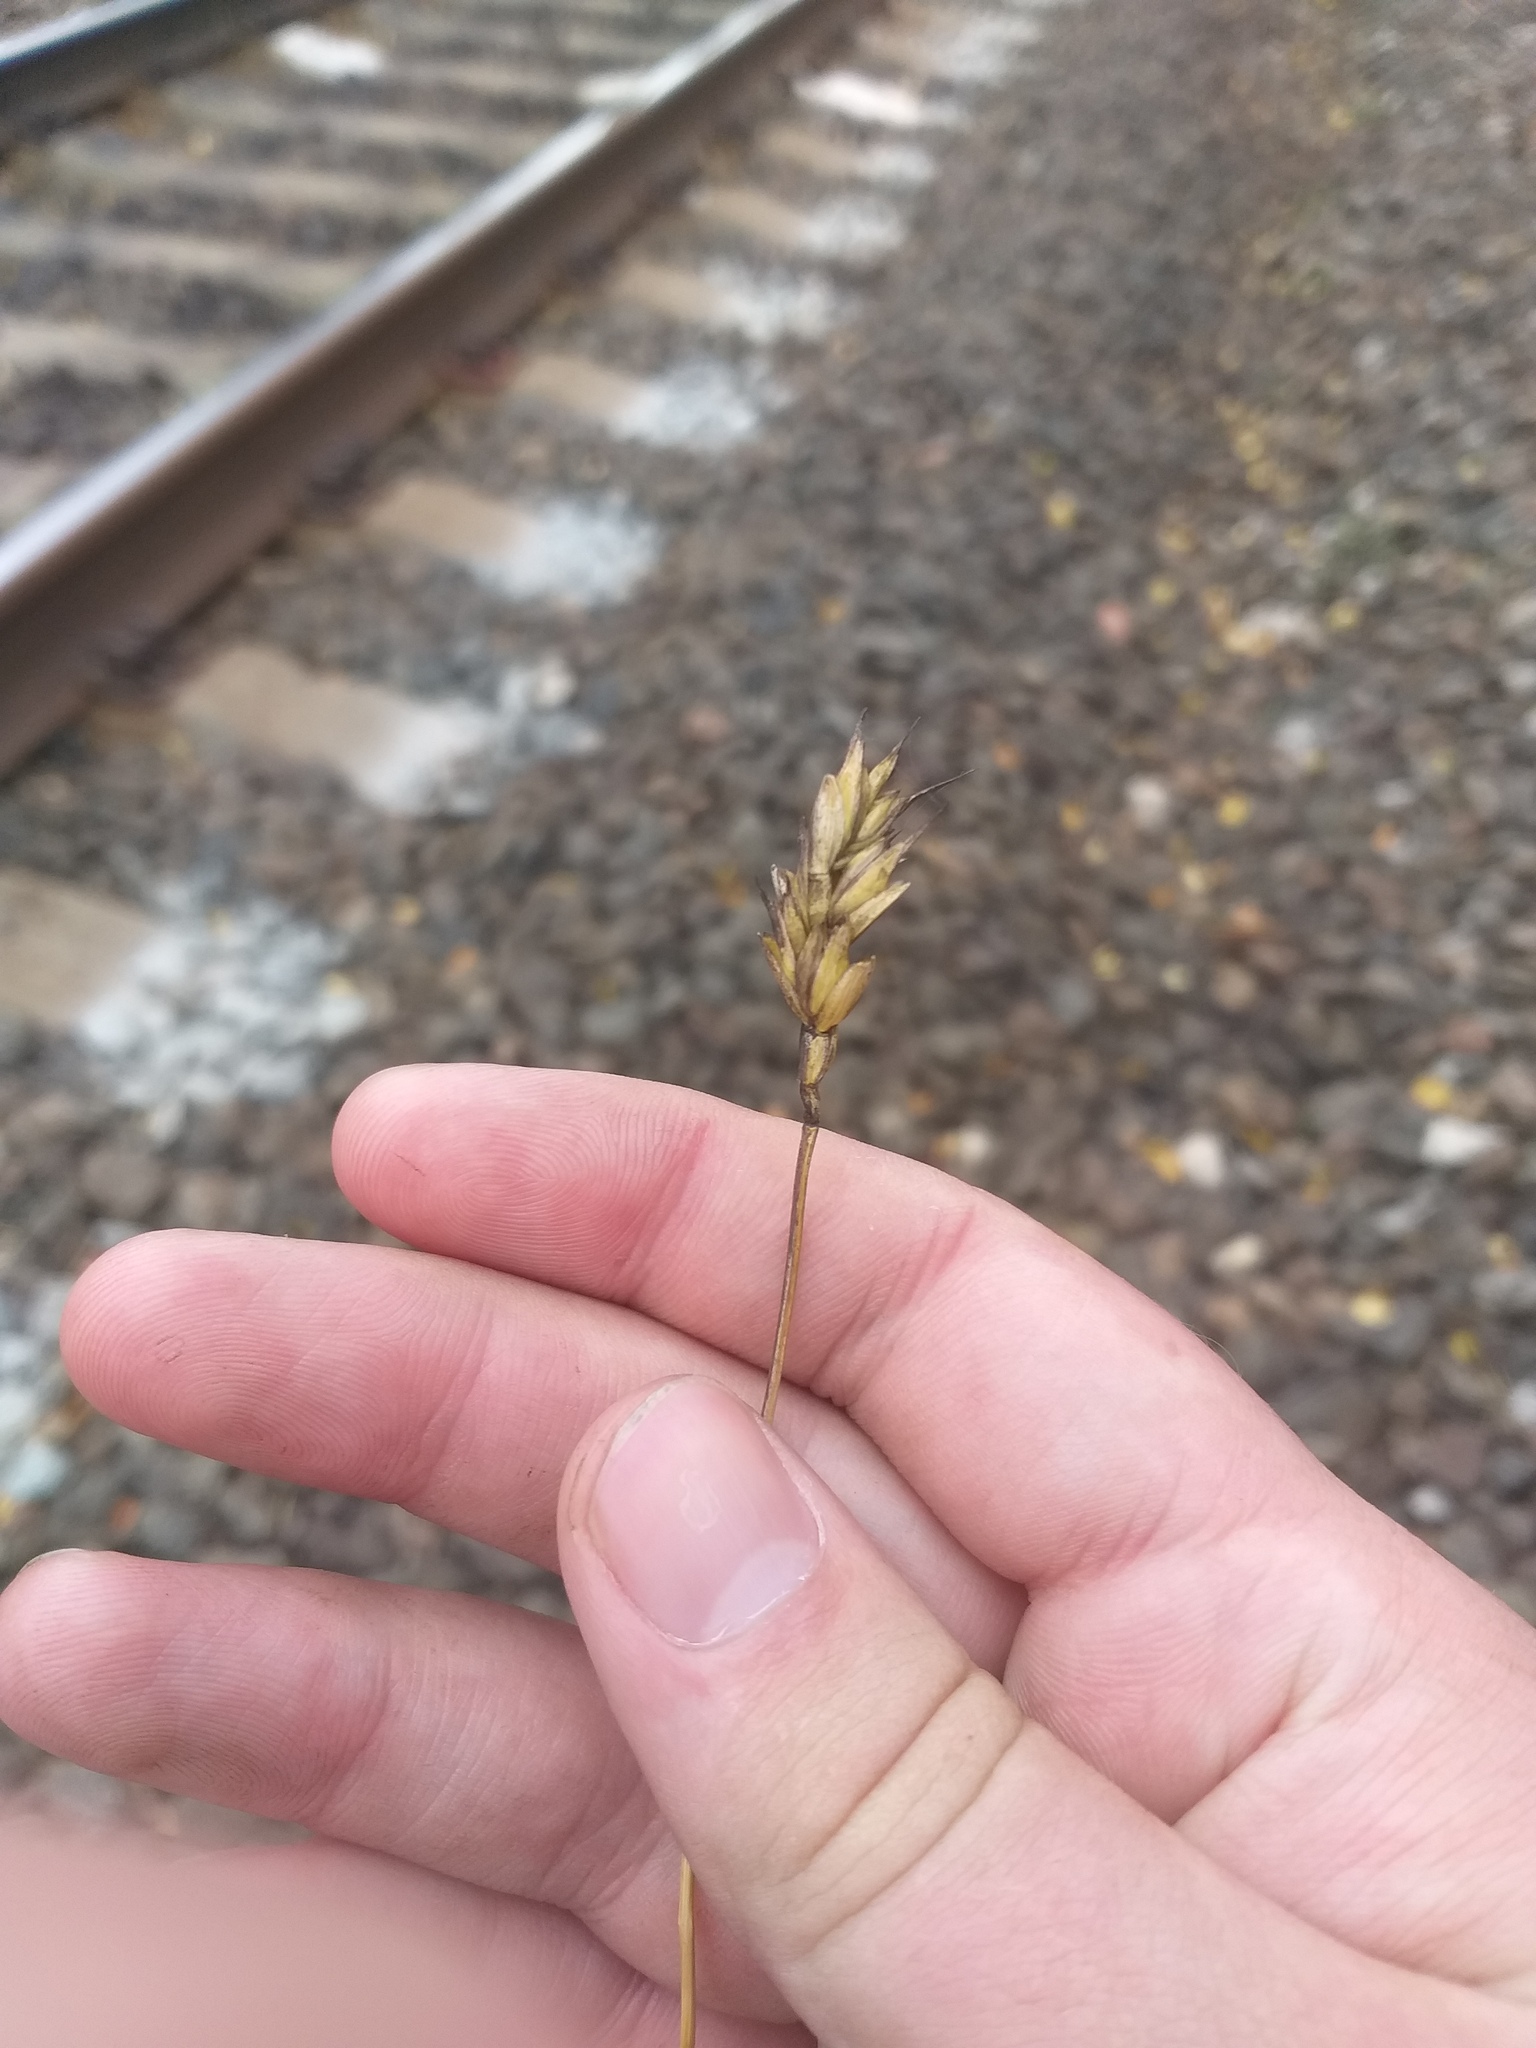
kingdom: Plantae
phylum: Tracheophyta
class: Liliopsida
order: Poales
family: Poaceae
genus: Triticum
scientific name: Triticum aestivum
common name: Common wheat
